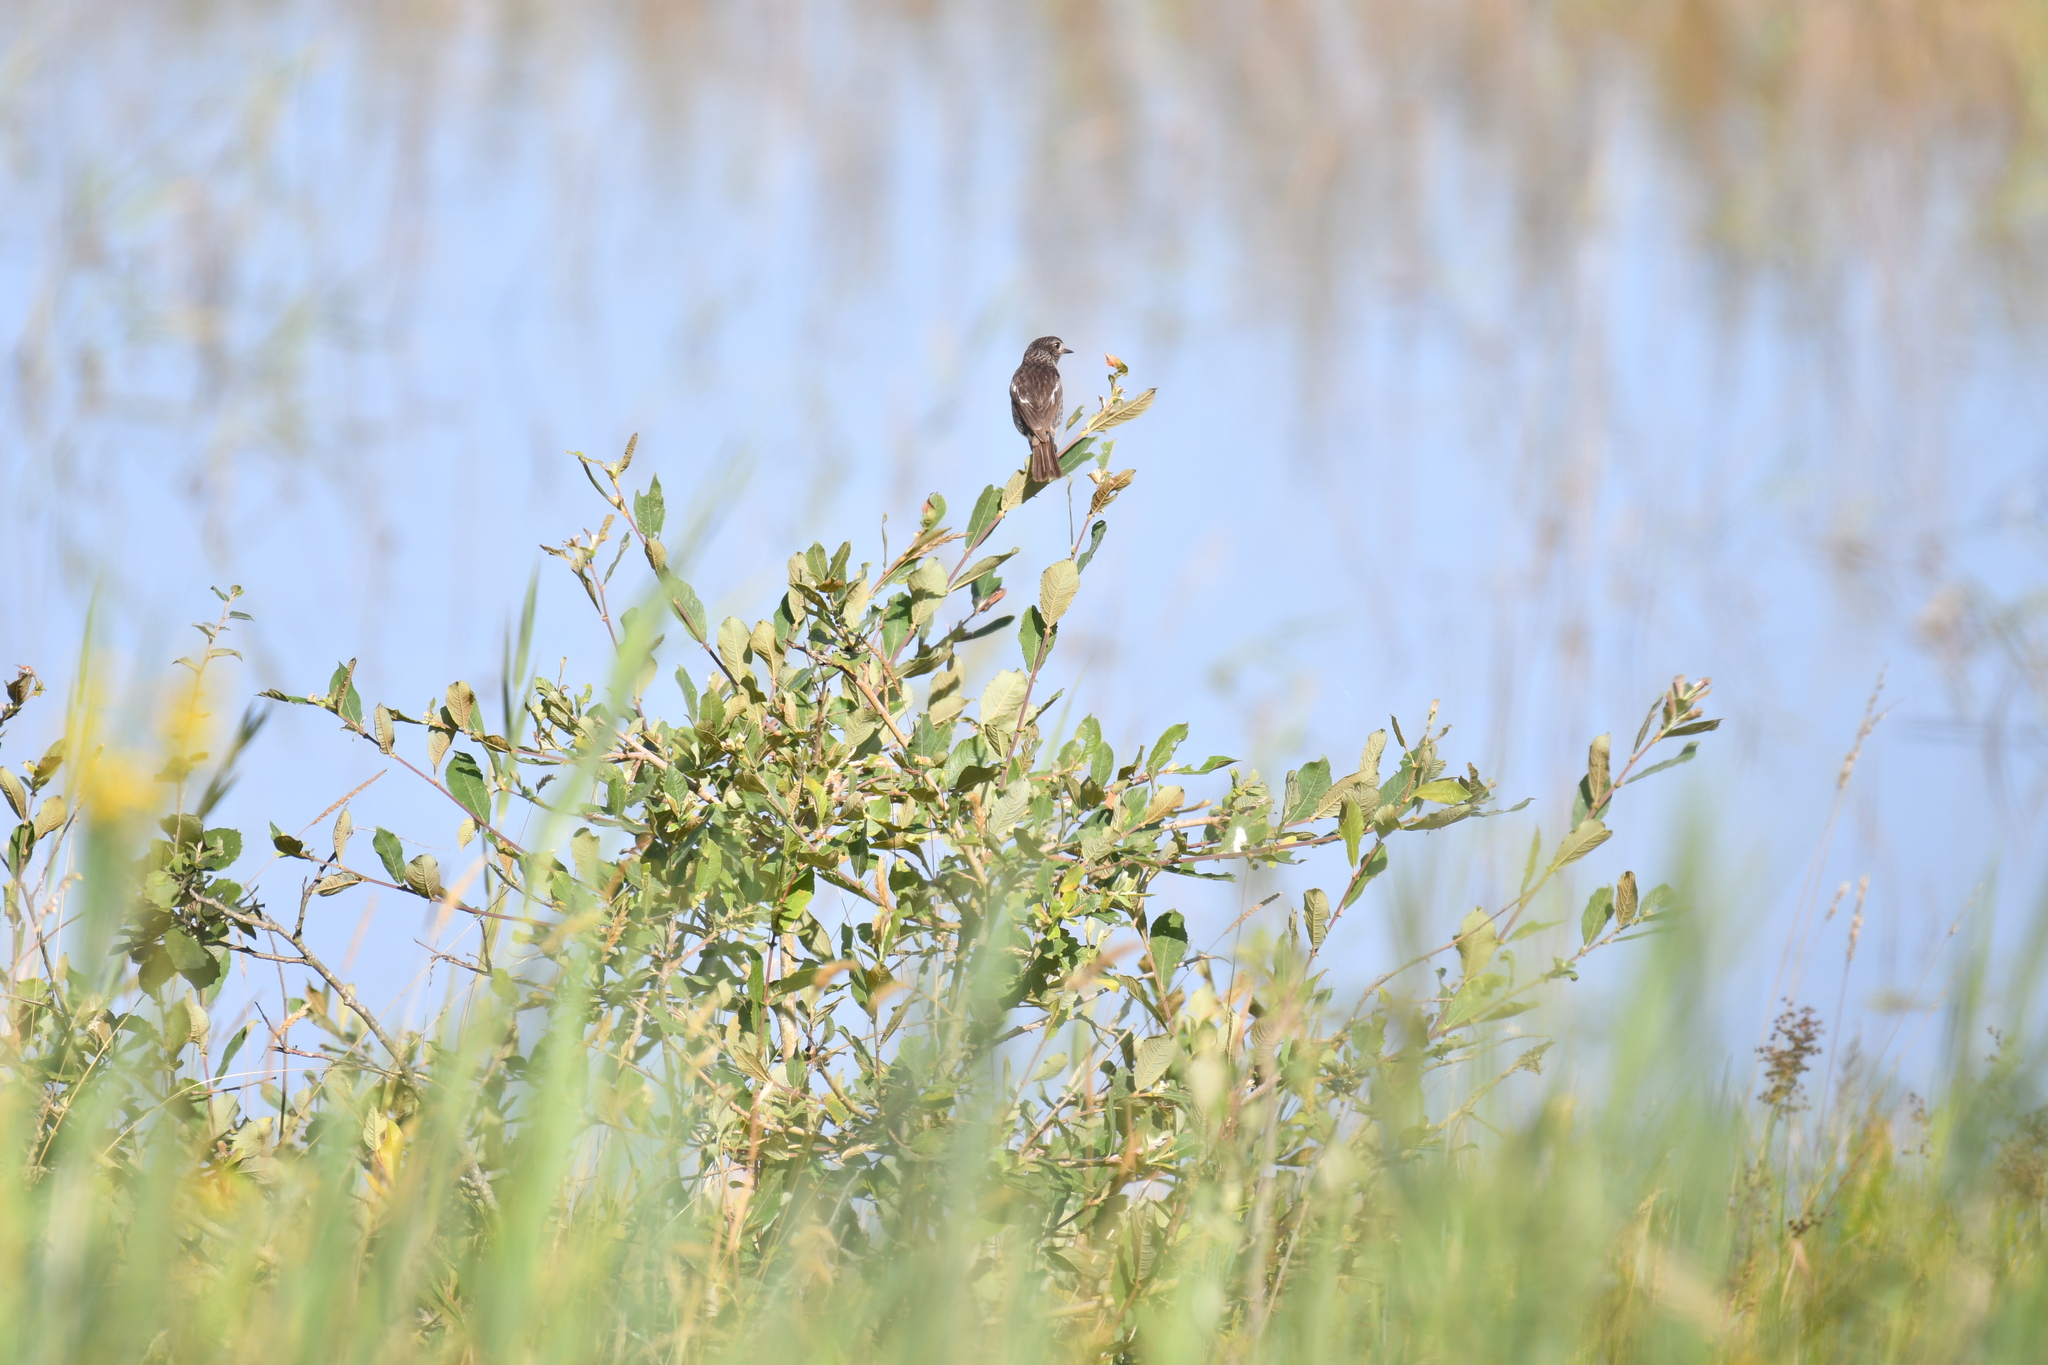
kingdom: Animalia
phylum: Chordata
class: Aves
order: Passeriformes
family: Muscicapidae
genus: Saxicola
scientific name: Saxicola rubicola
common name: European stonechat
